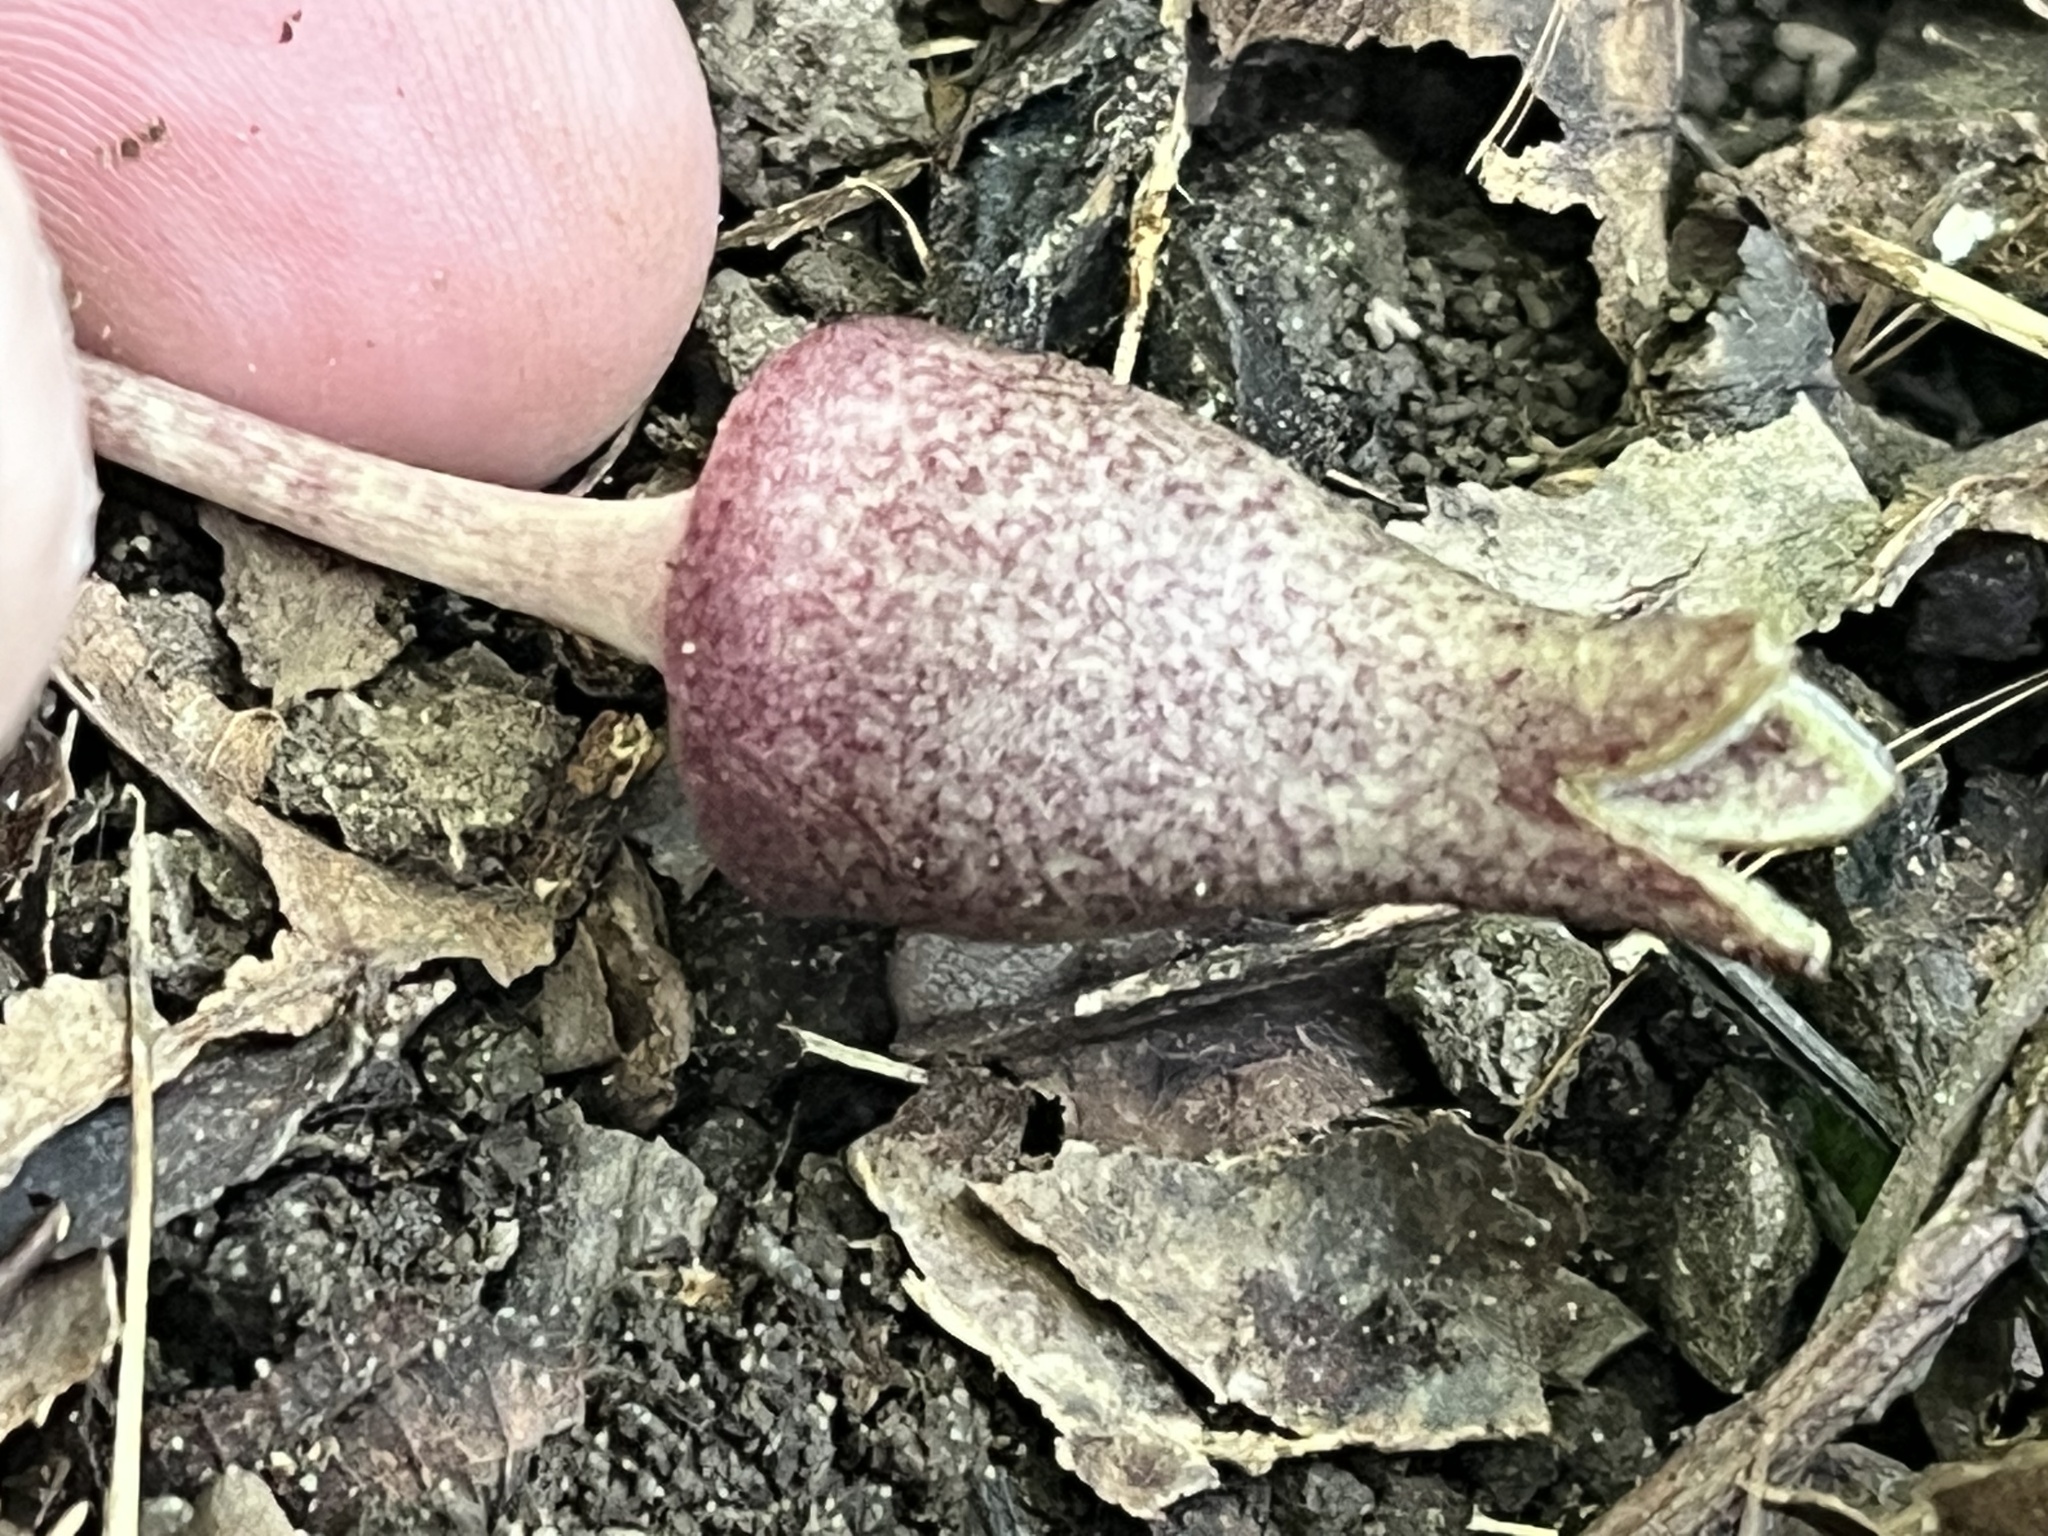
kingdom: Plantae
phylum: Tracheophyta
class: Magnoliopsida
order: Piperales
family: Aristolochiaceae
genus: Hexastylis
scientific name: Hexastylis arifolia
